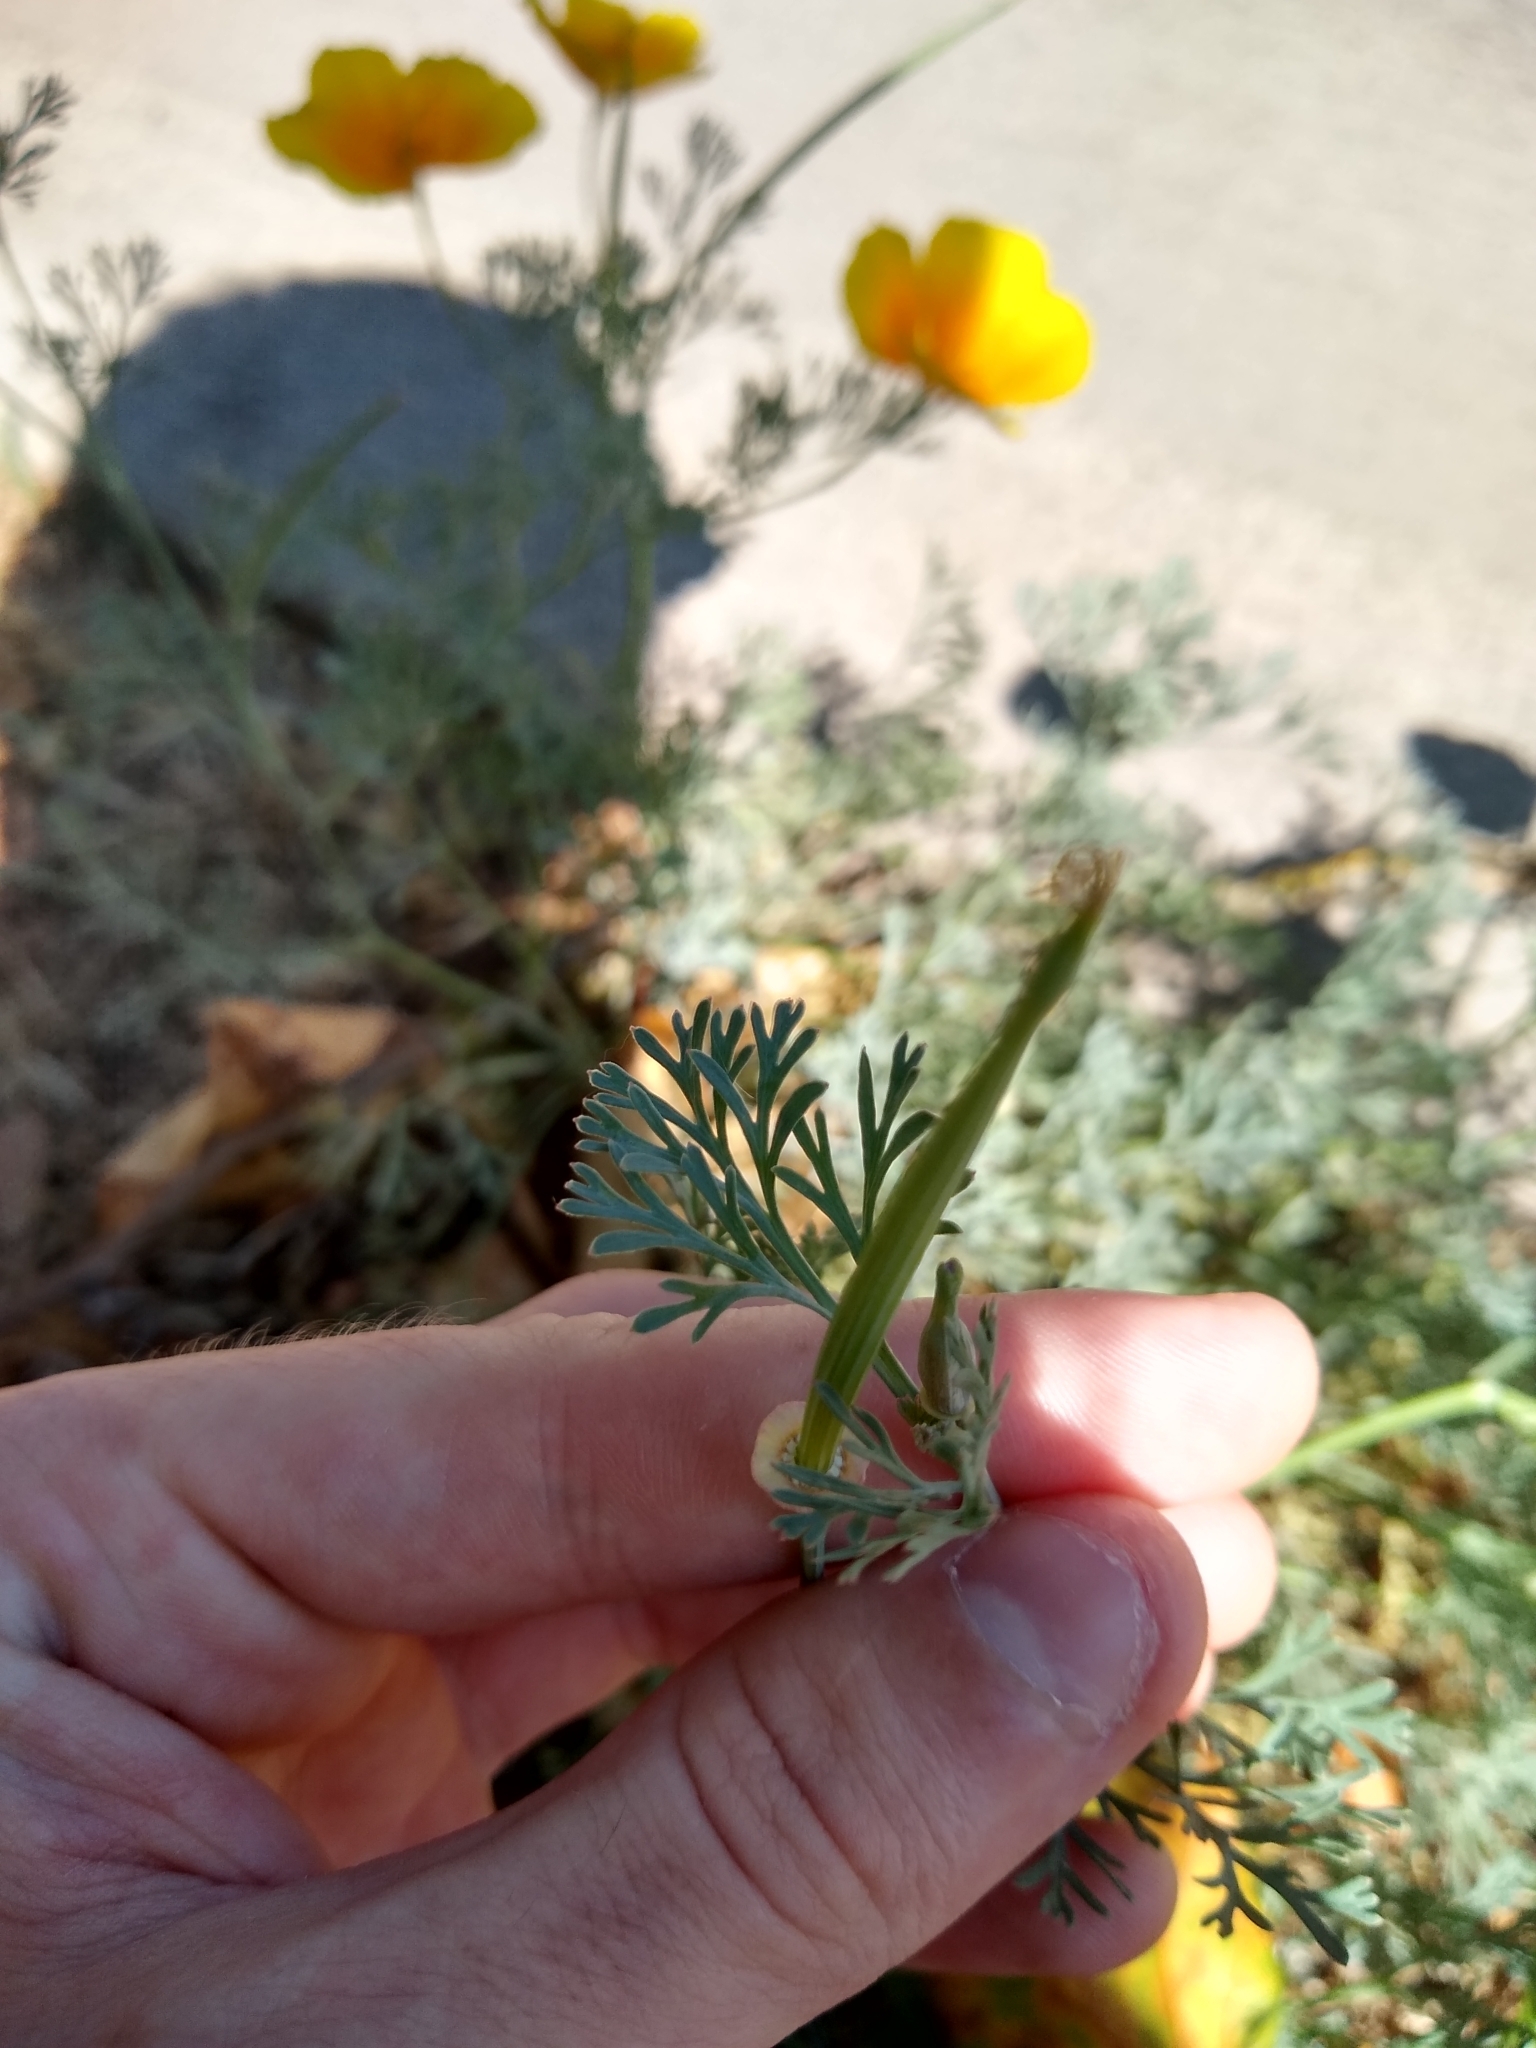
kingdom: Plantae
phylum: Tracheophyta
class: Magnoliopsida
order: Ranunculales
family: Papaveraceae
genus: Eschscholzia
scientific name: Eschscholzia californica
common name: California poppy
